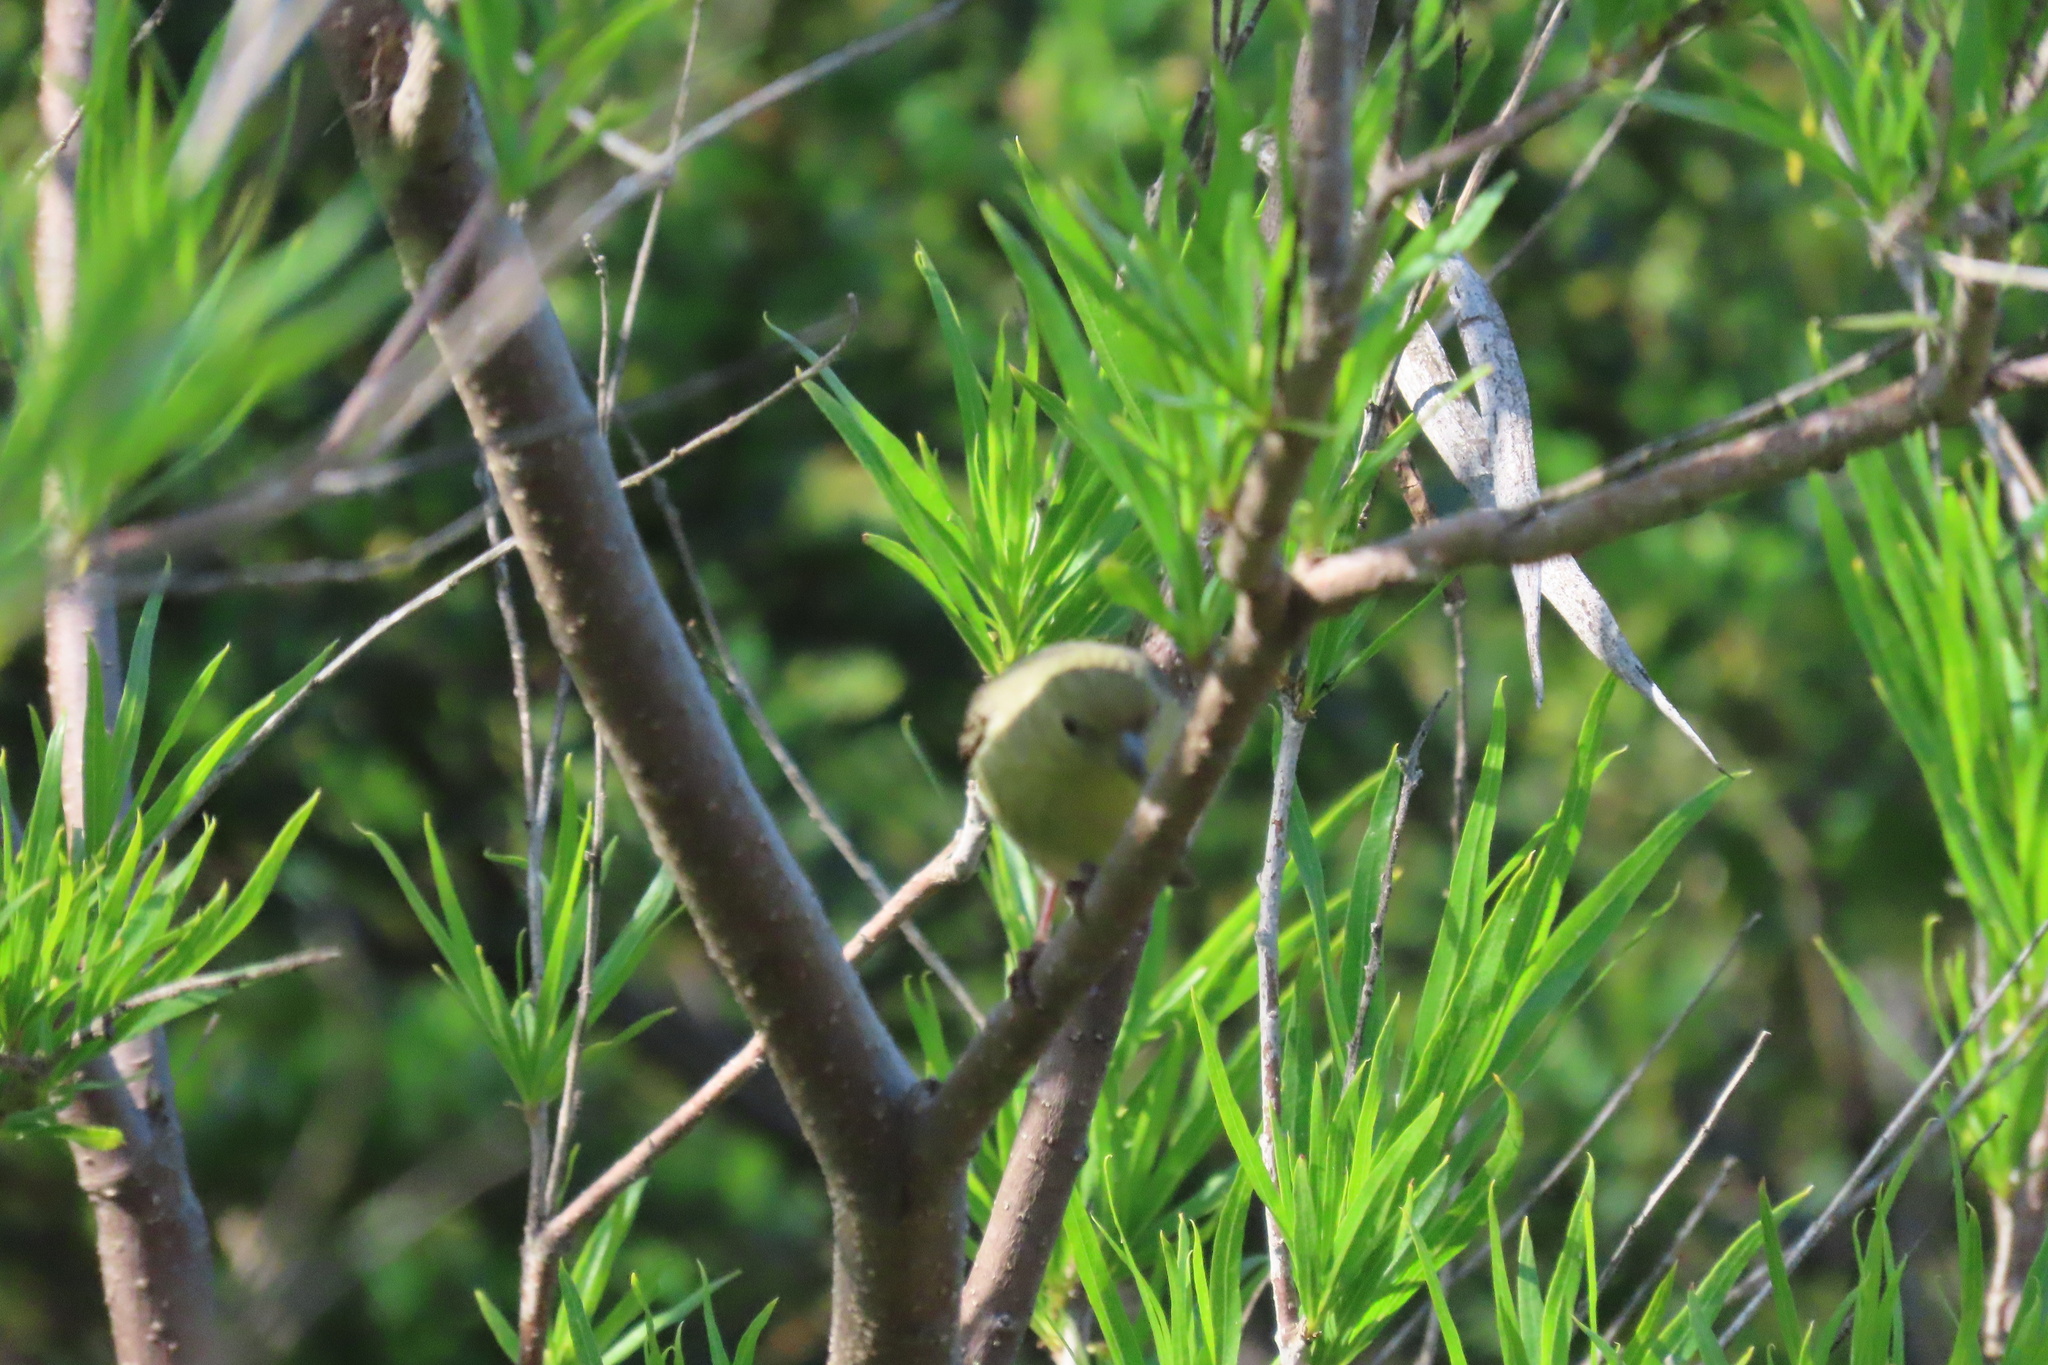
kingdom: Animalia
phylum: Chordata
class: Aves
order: Passeriformes
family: Fringillidae
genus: Spinus
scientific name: Spinus psaltria
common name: Lesser goldfinch
